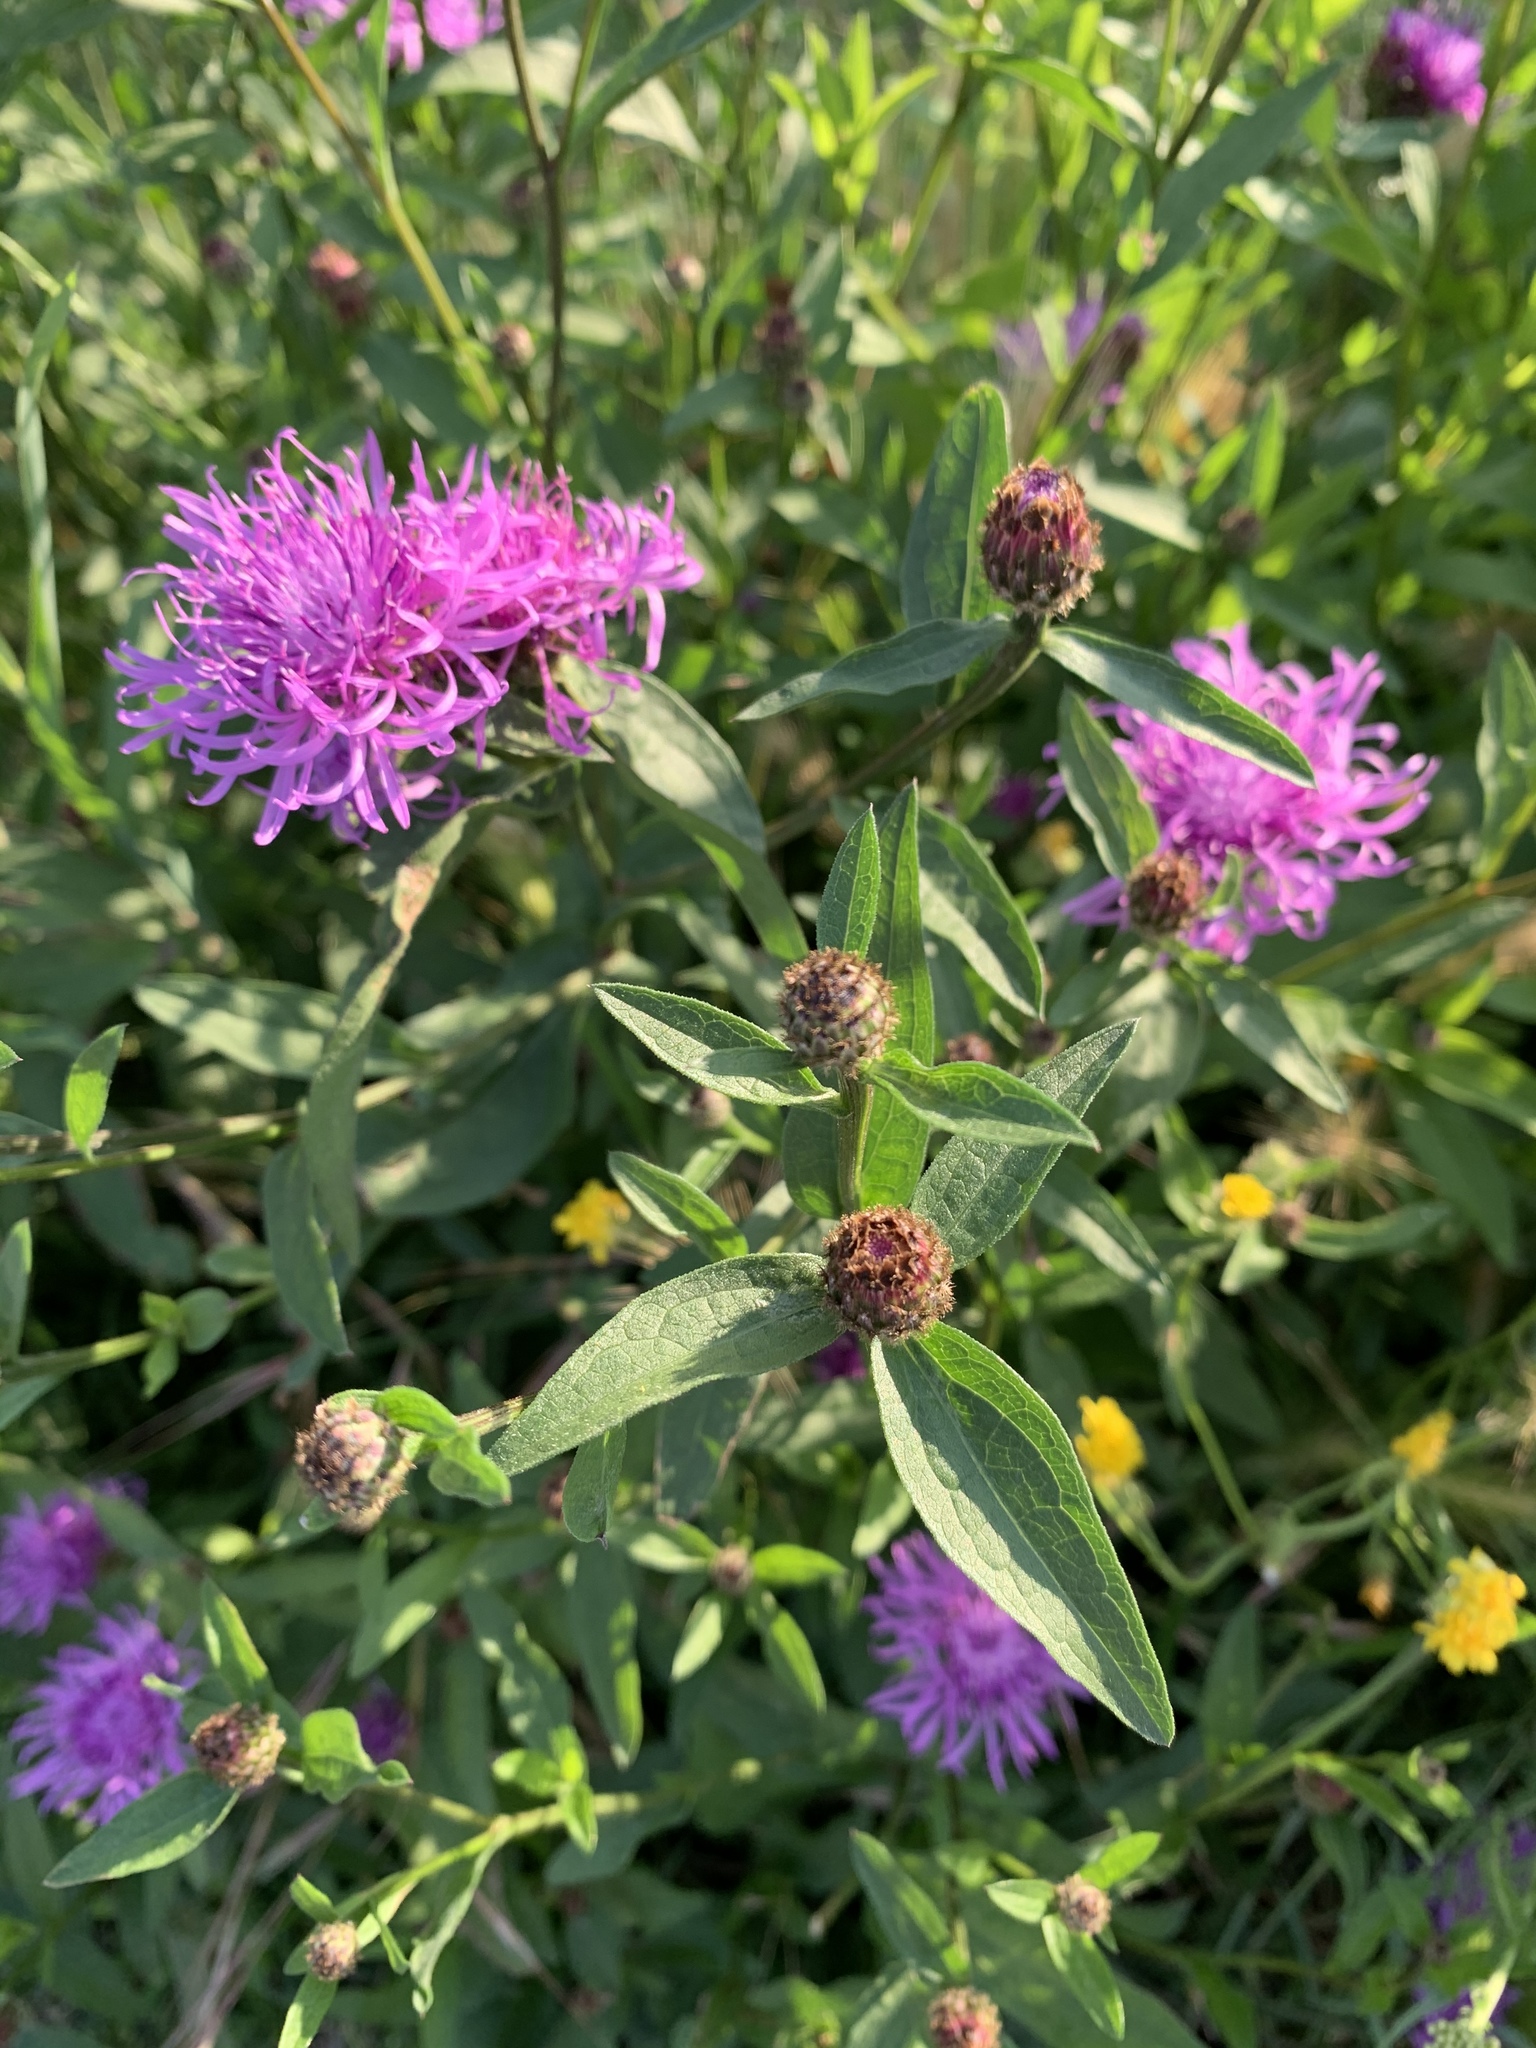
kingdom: Plantae
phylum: Tracheophyta
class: Magnoliopsida
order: Asterales
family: Asteraceae
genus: Centaurea
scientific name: Centaurea nigrescens
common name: Tyrol knapweed
